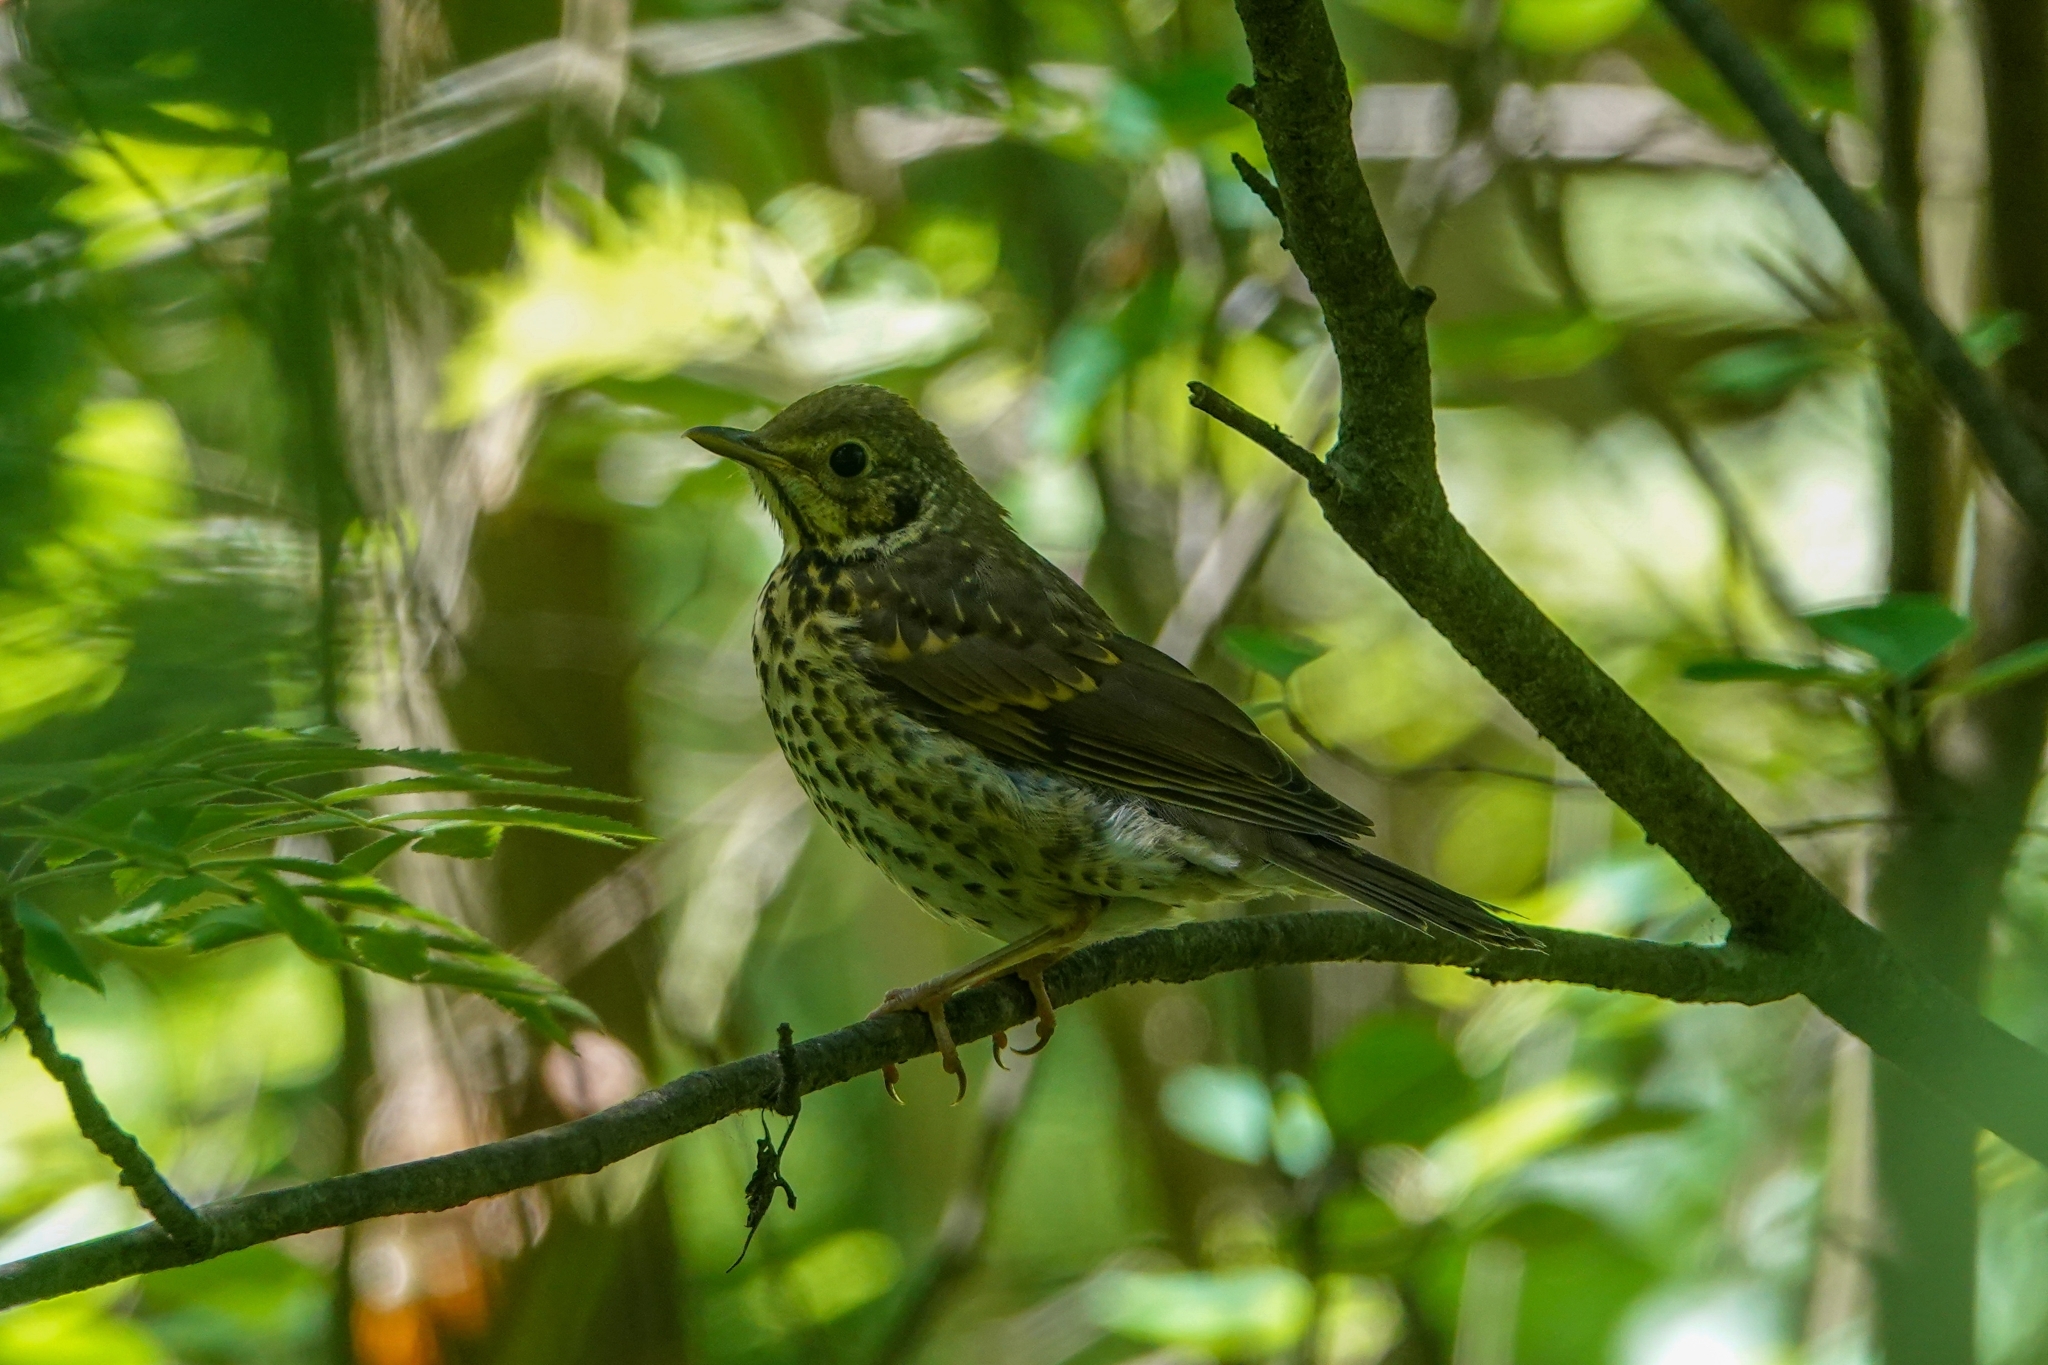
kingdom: Animalia
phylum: Chordata
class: Aves
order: Passeriformes
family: Turdidae
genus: Turdus
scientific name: Turdus philomelos
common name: Song thrush
